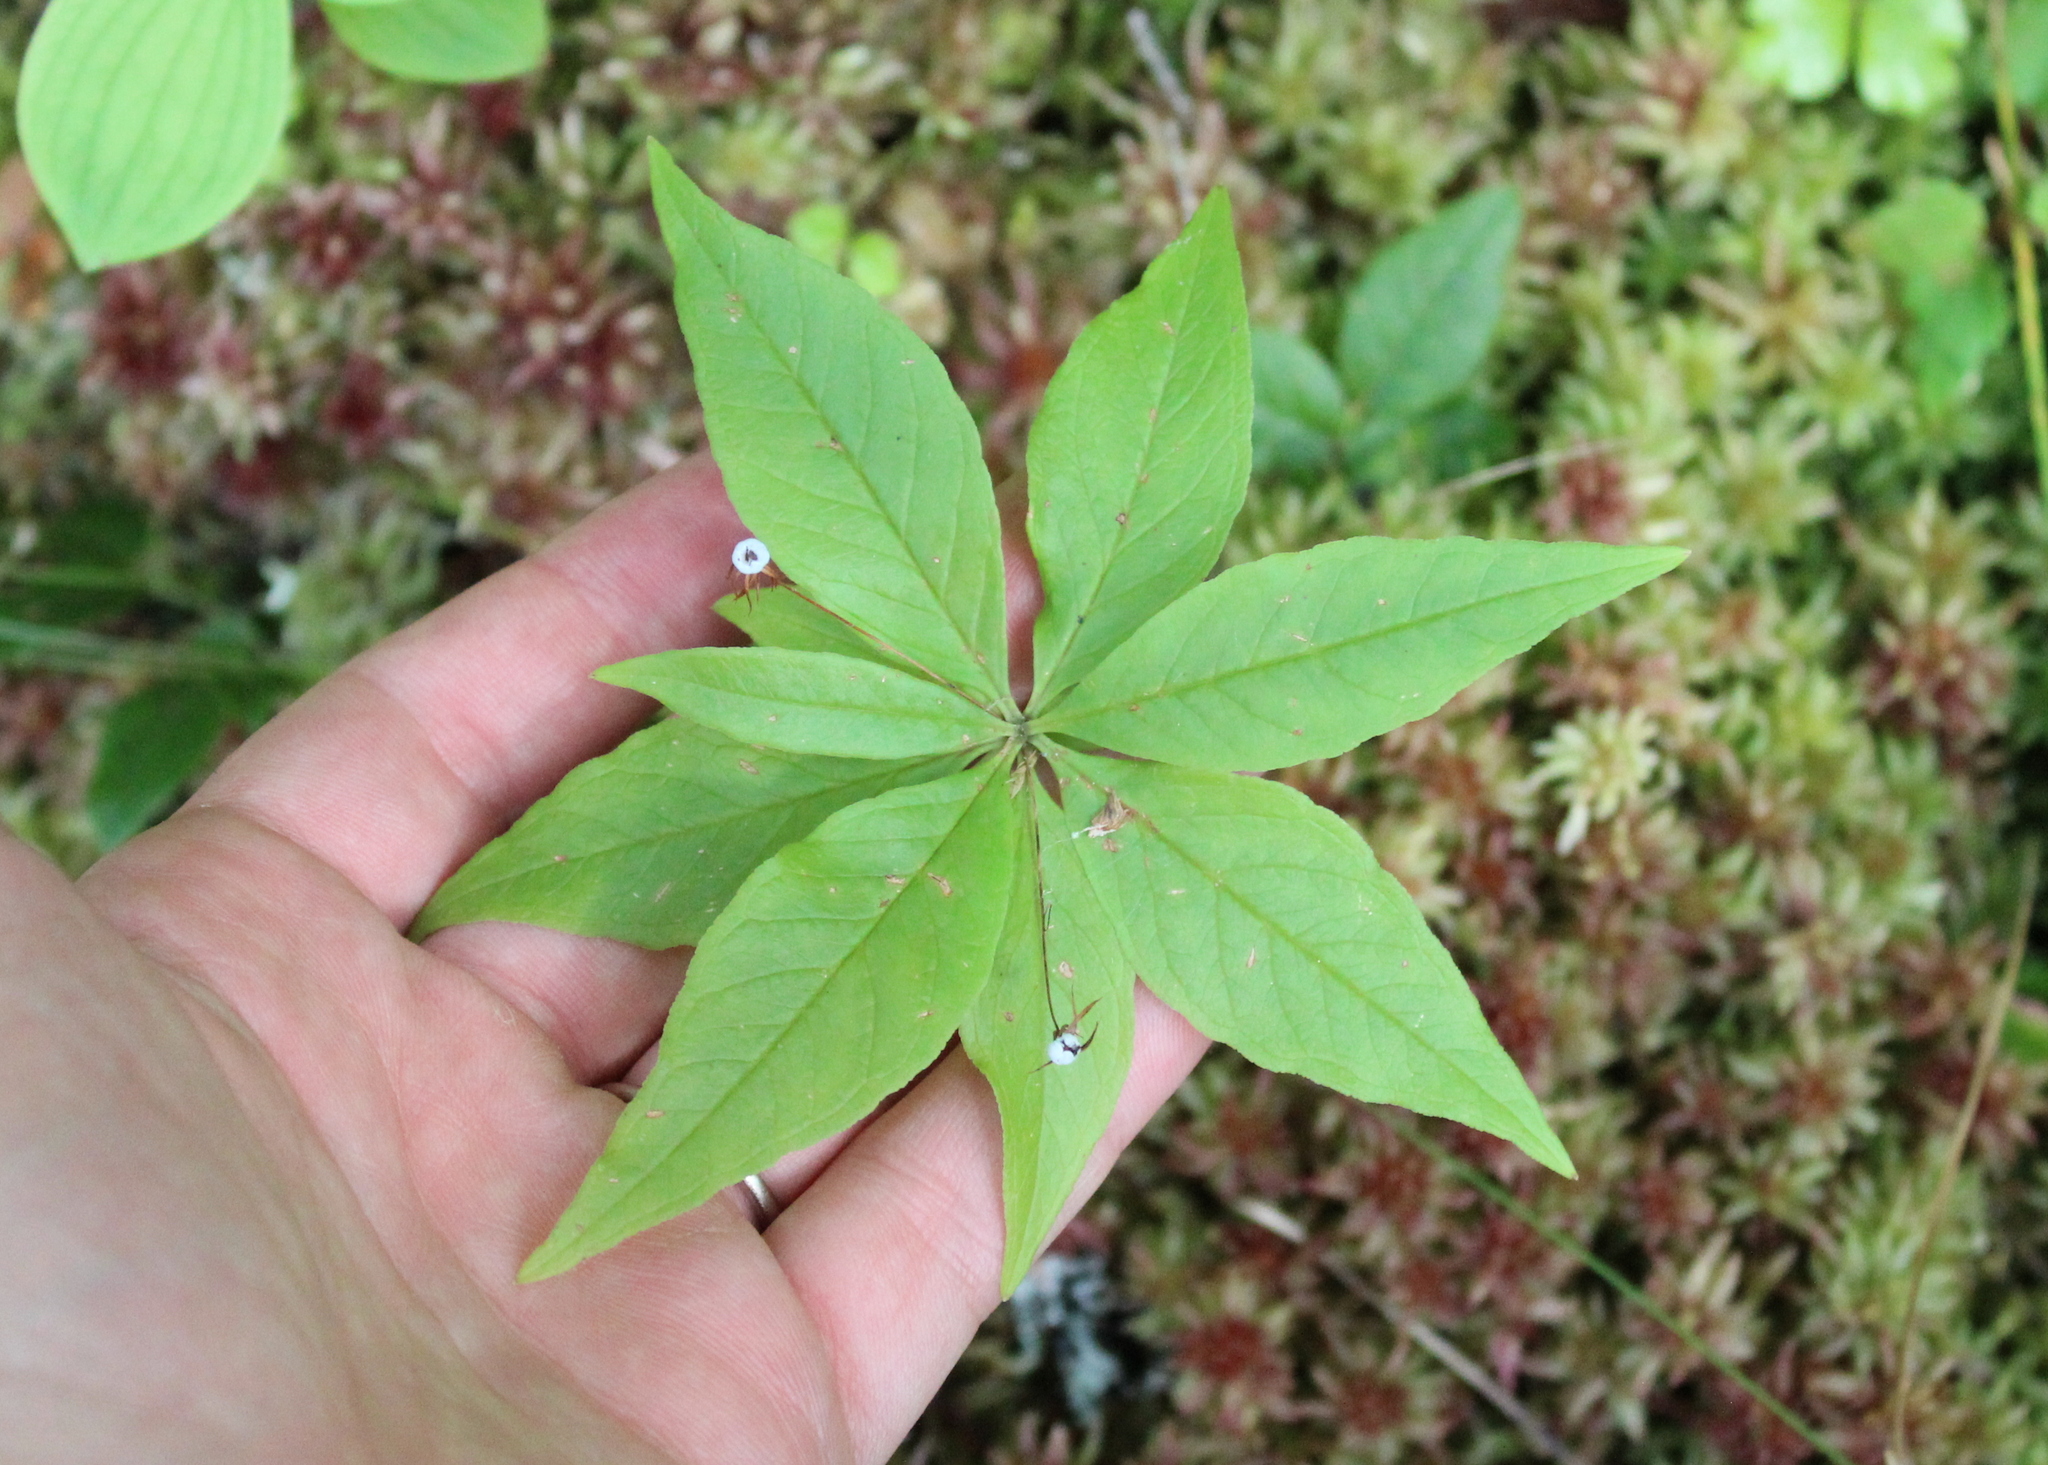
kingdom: Plantae
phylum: Tracheophyta
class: Magnoliopsida
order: Ericales
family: Primulaceae
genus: Lysimachia
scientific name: Lysimachia borealis
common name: American starflower
